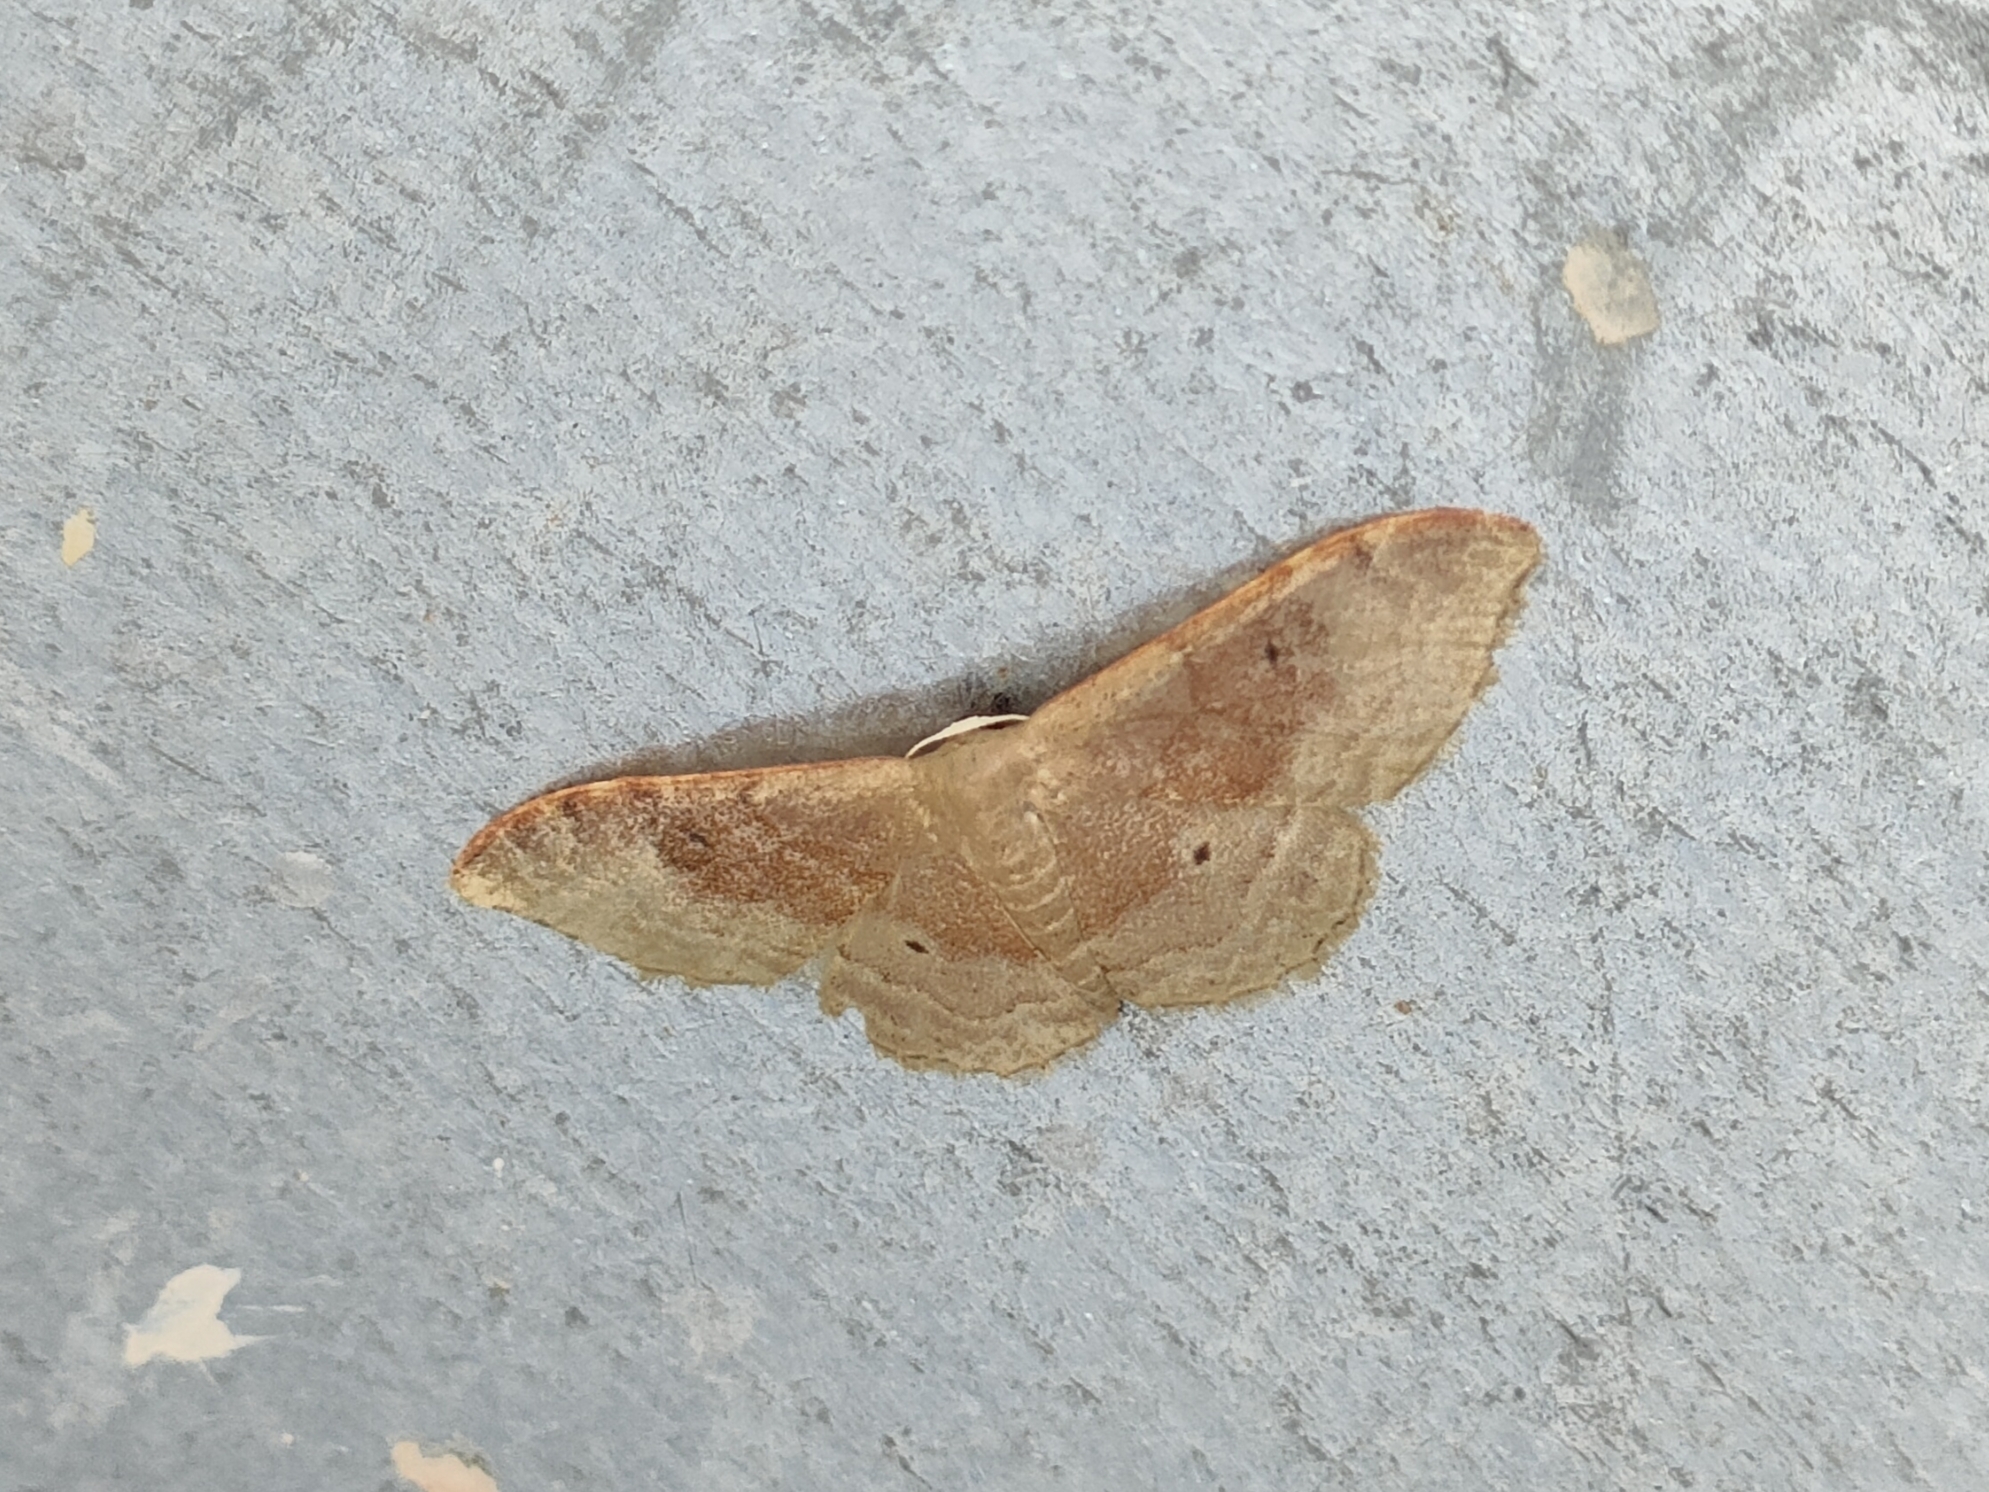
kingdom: Animalia
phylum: Arthropoda
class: Insecta
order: Lepidoptera
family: Geometridae
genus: Idaea
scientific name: Idaea degeneraria
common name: Portland ribbon wave
